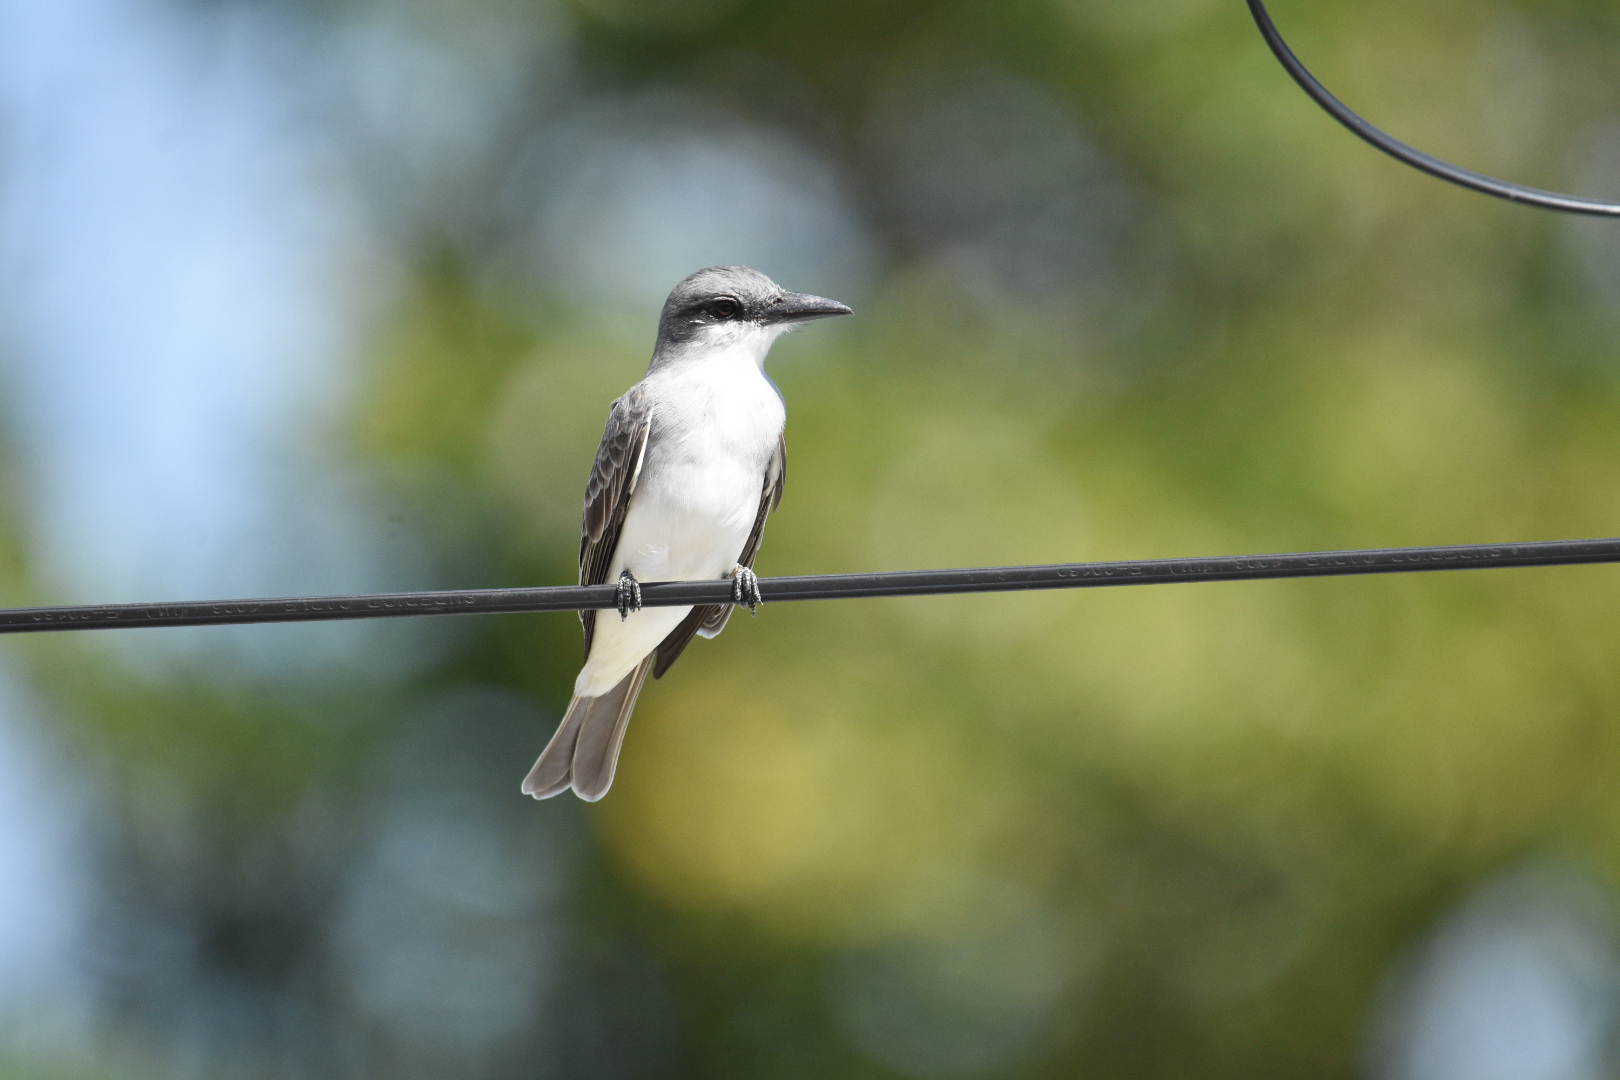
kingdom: Animalia
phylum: Chordata
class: Aves
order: Passeriformes
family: Tyrannidae
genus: Tyrannus
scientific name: Tyrannus dominicensis
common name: Gray kingbird
